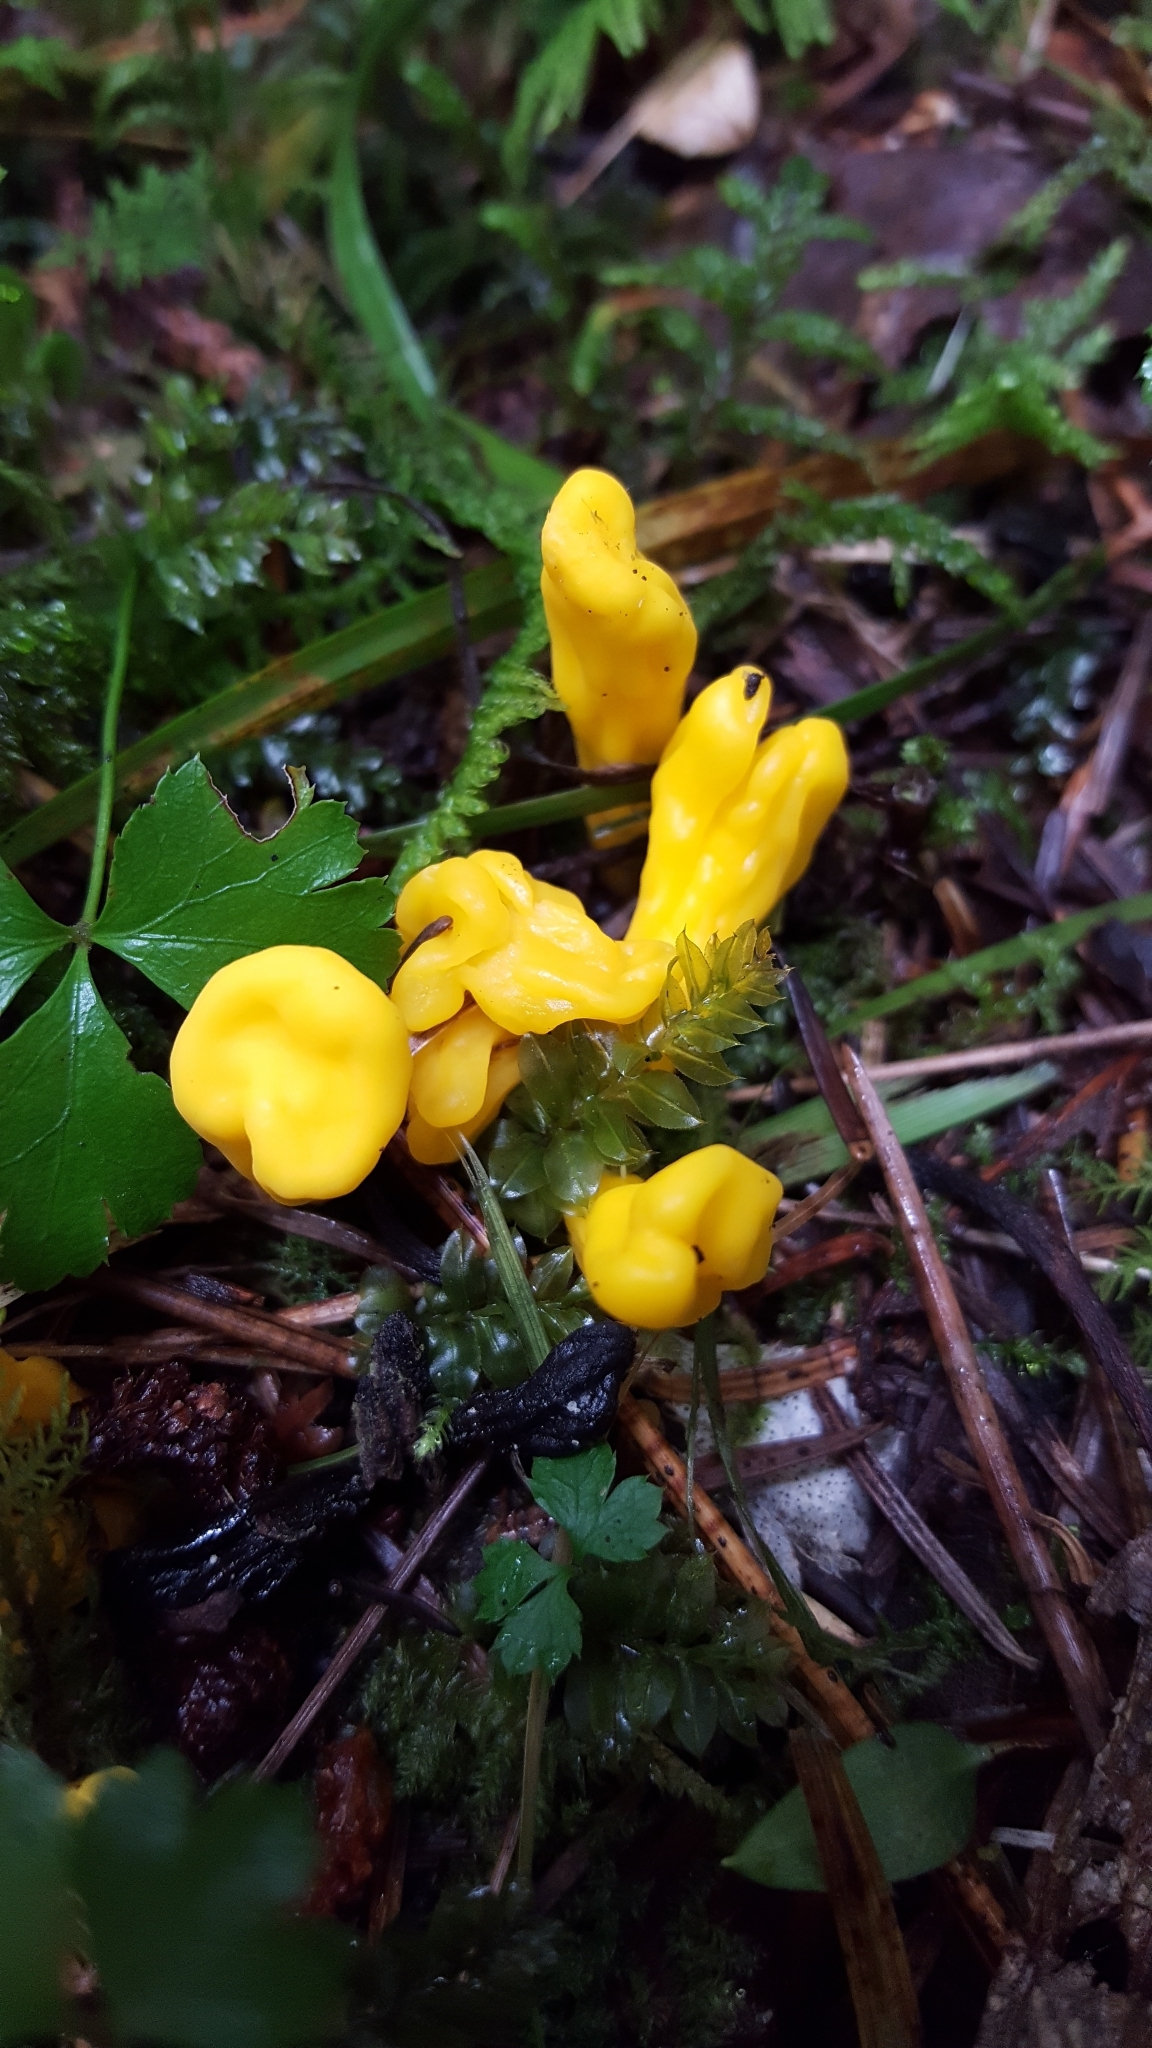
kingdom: Fungi
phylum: Ascomycota
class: Neolectomycetes
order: Neolectales
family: Neolectaceae
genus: Neolecta
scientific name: Neolecta irregularis
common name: Irregular earth tongue
